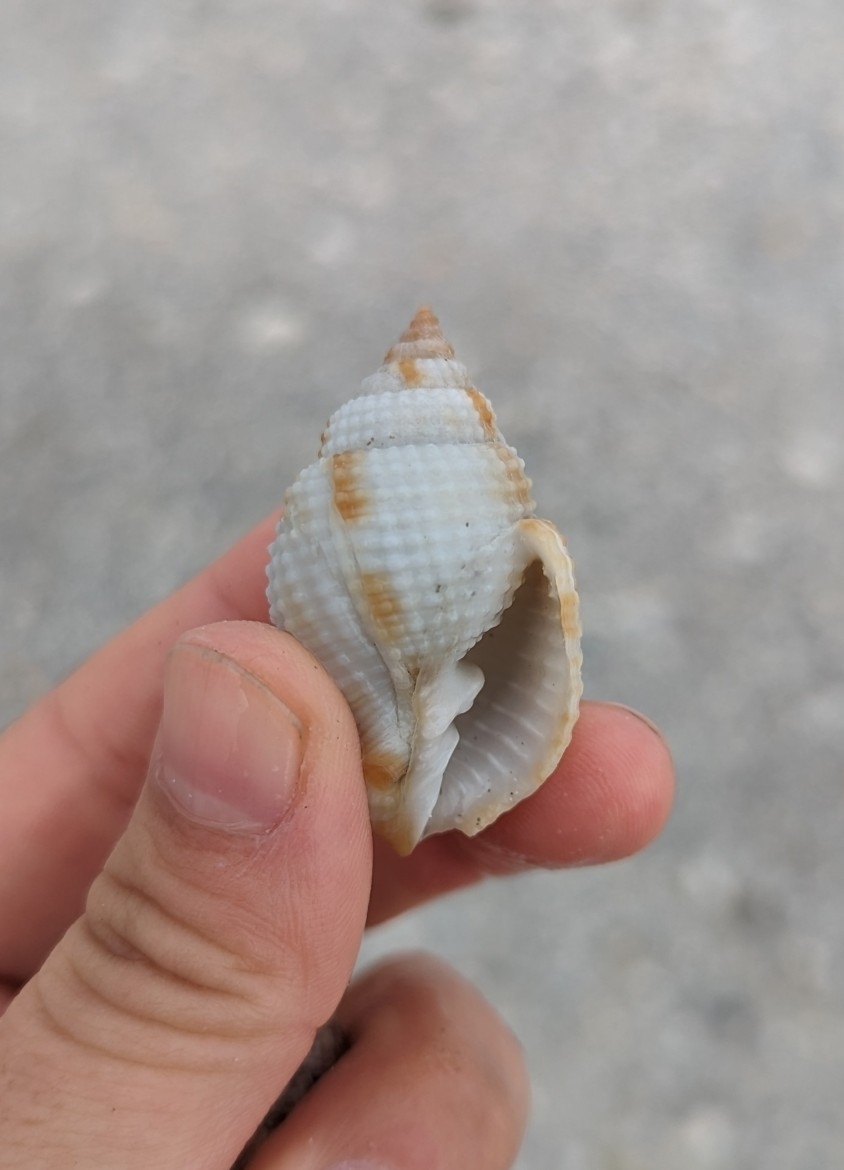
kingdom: Animalia
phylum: Mollusca
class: Gastropoda
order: Neogastropoda
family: Cancellariidae
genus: Cancellaria
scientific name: Cancellaria reticulata
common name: Common nutmeg
